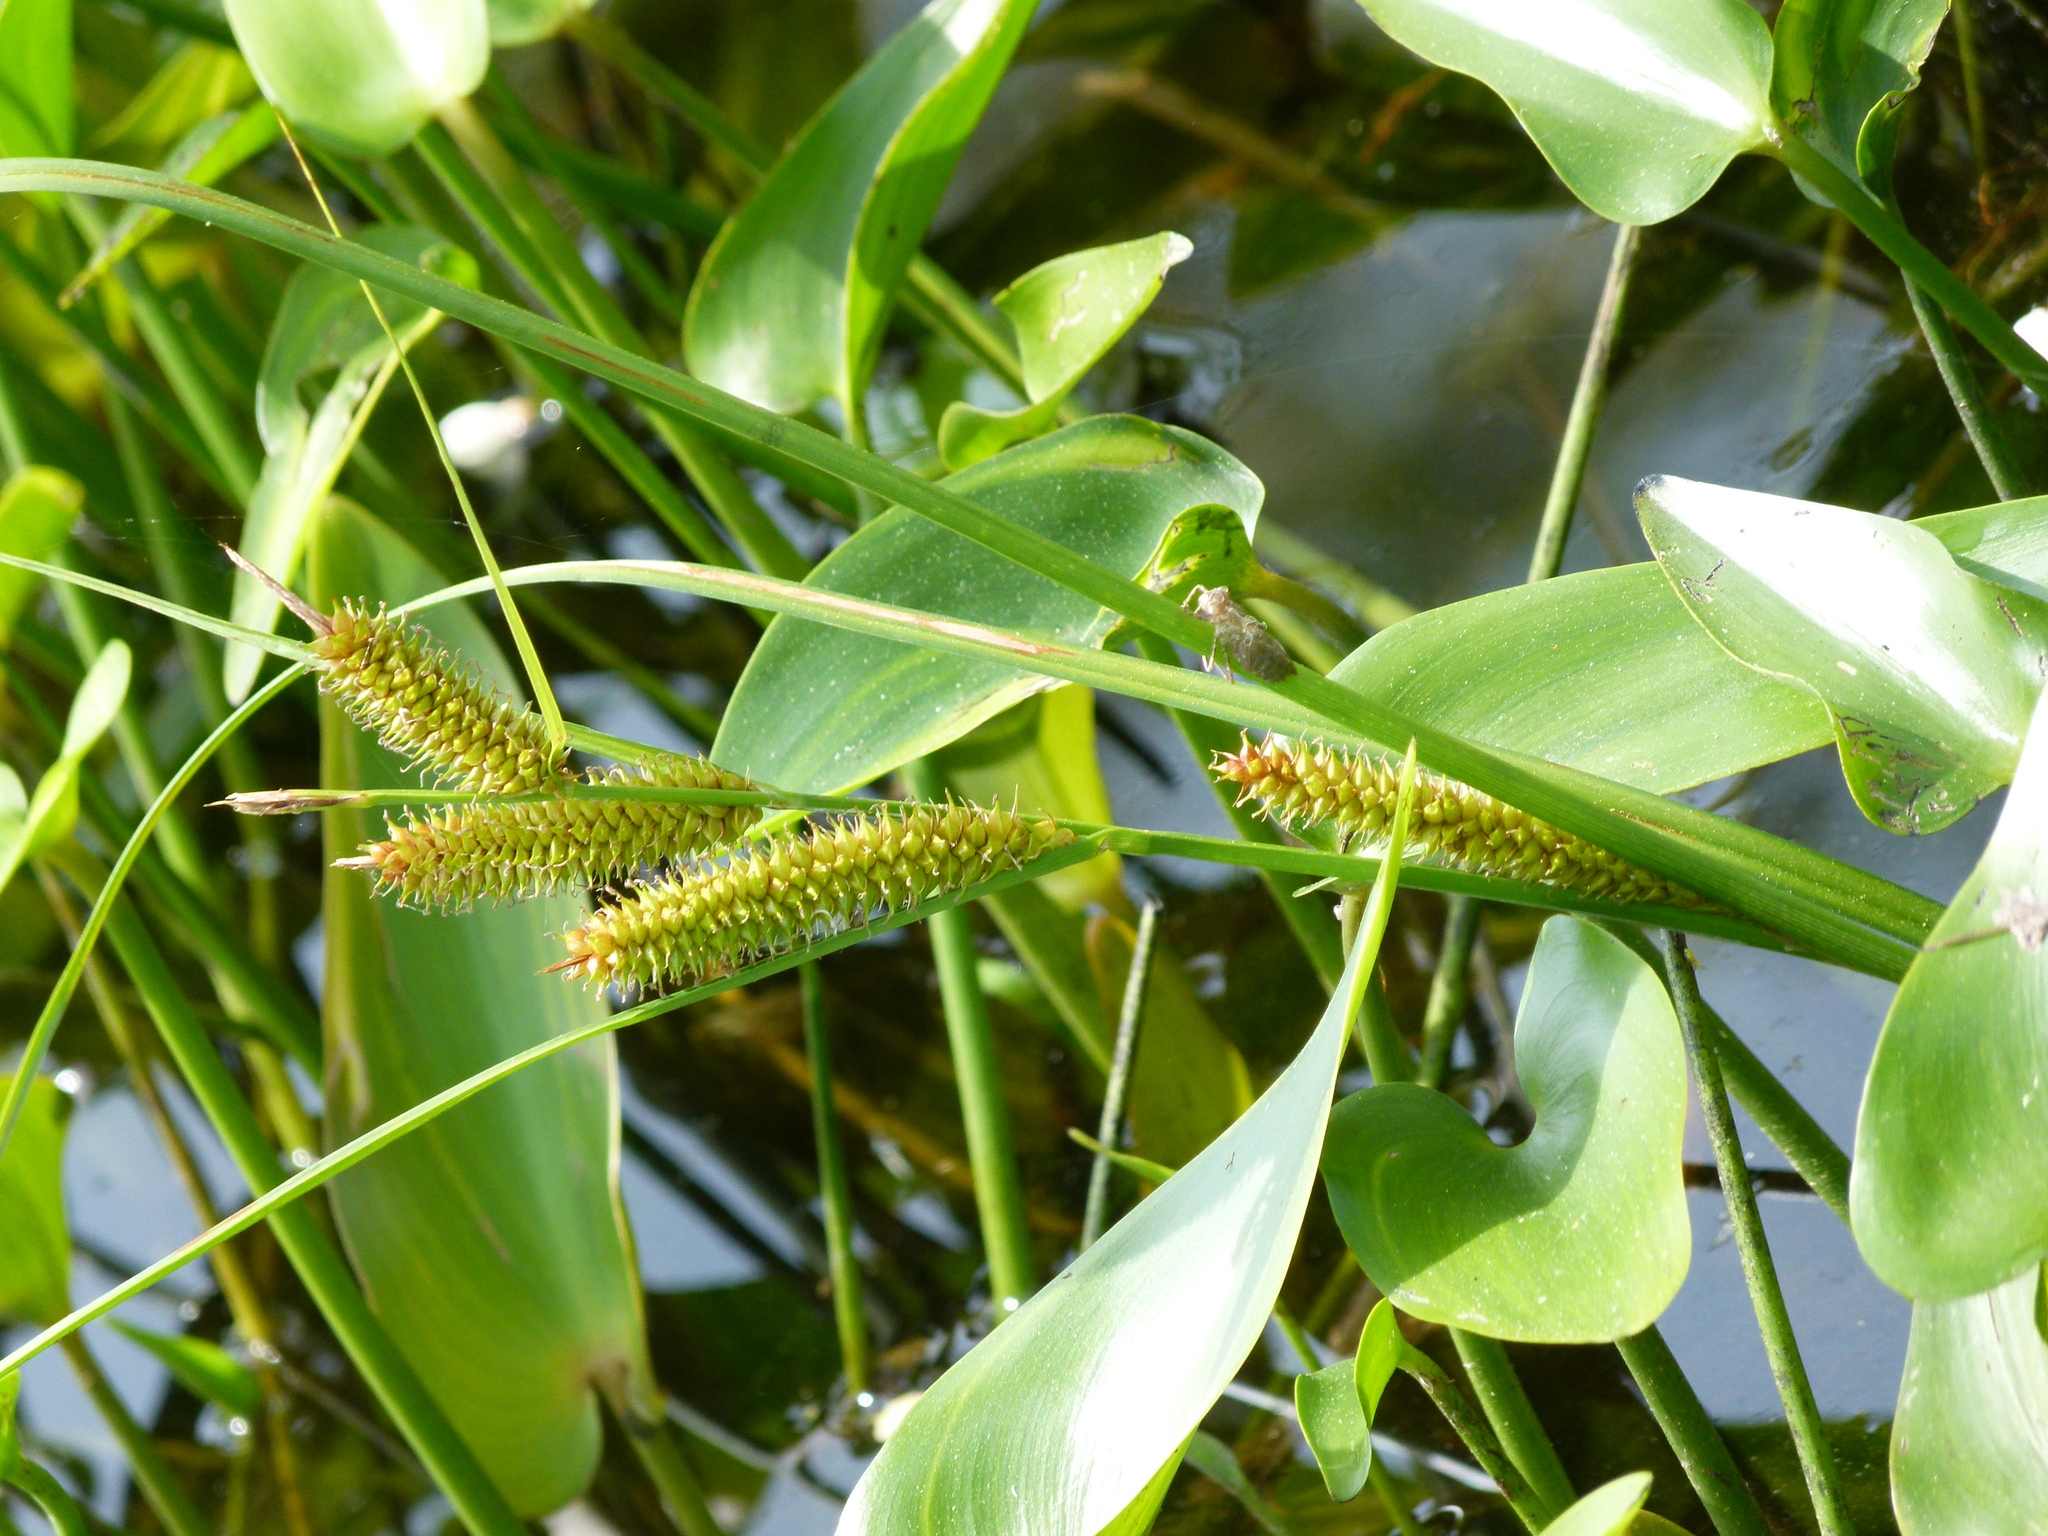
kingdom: Plantae
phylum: Tracheophyta
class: Liliopsida
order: Poales
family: Cyperaceae
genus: Carex
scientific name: Carex utriculata
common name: Beaked sedge
